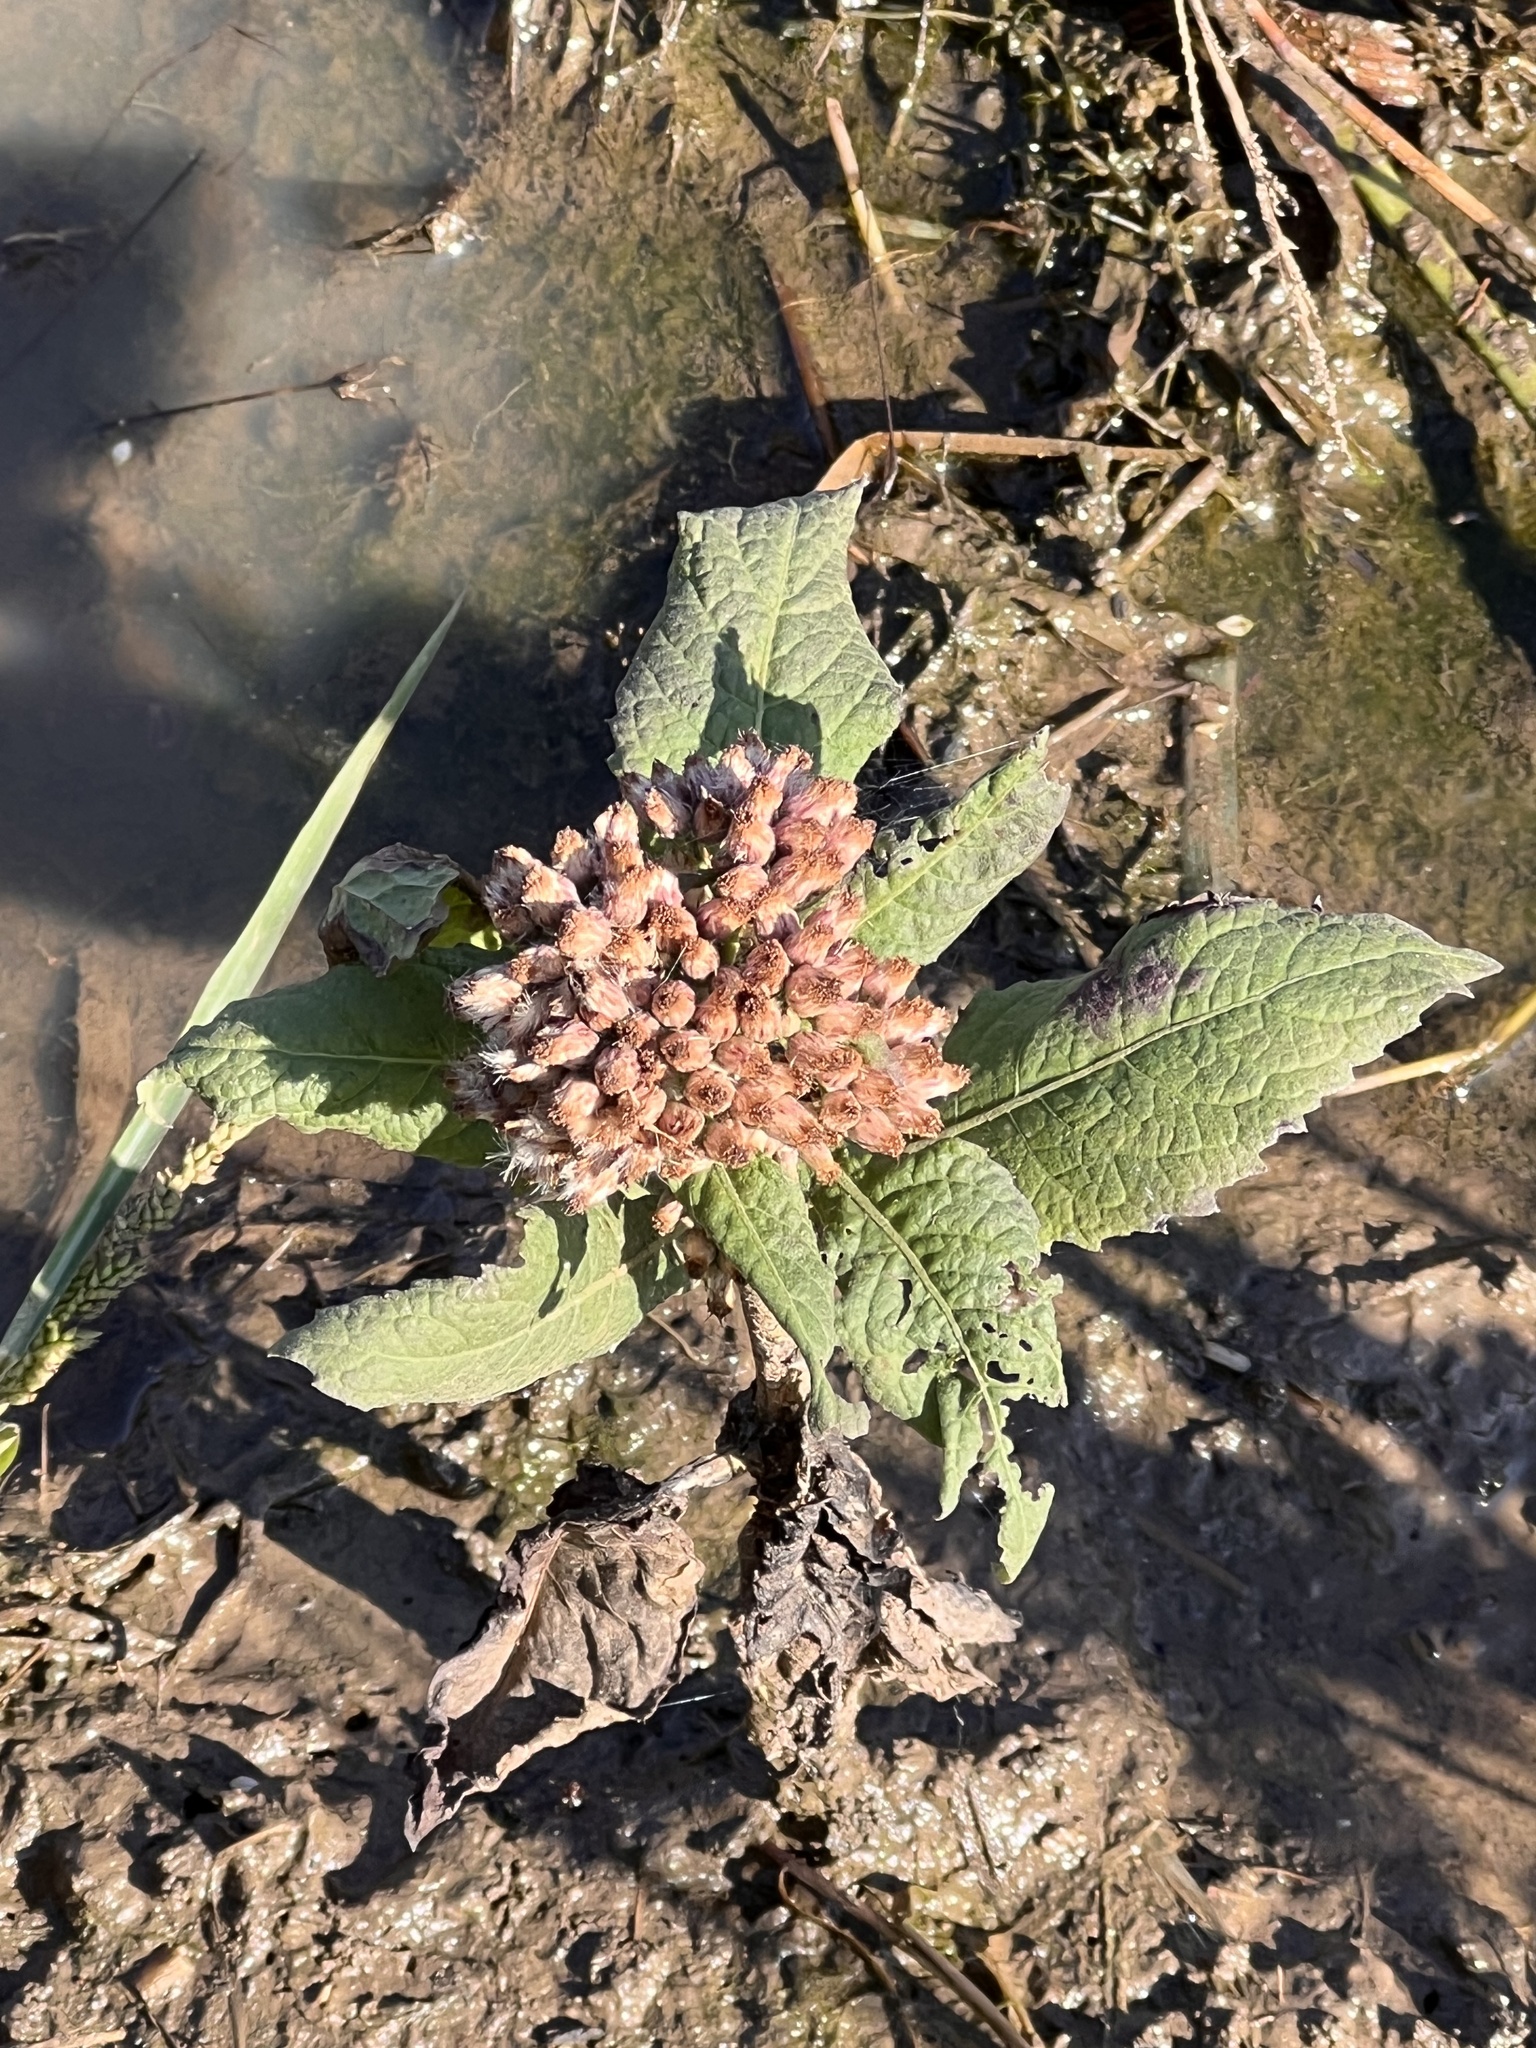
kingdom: Plantae
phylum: Tracheophyta
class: Magnoliopsida
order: Asterales
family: Asteraceae
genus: Pluchea
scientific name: Pluchea camphorata
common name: Camphor pluchea
